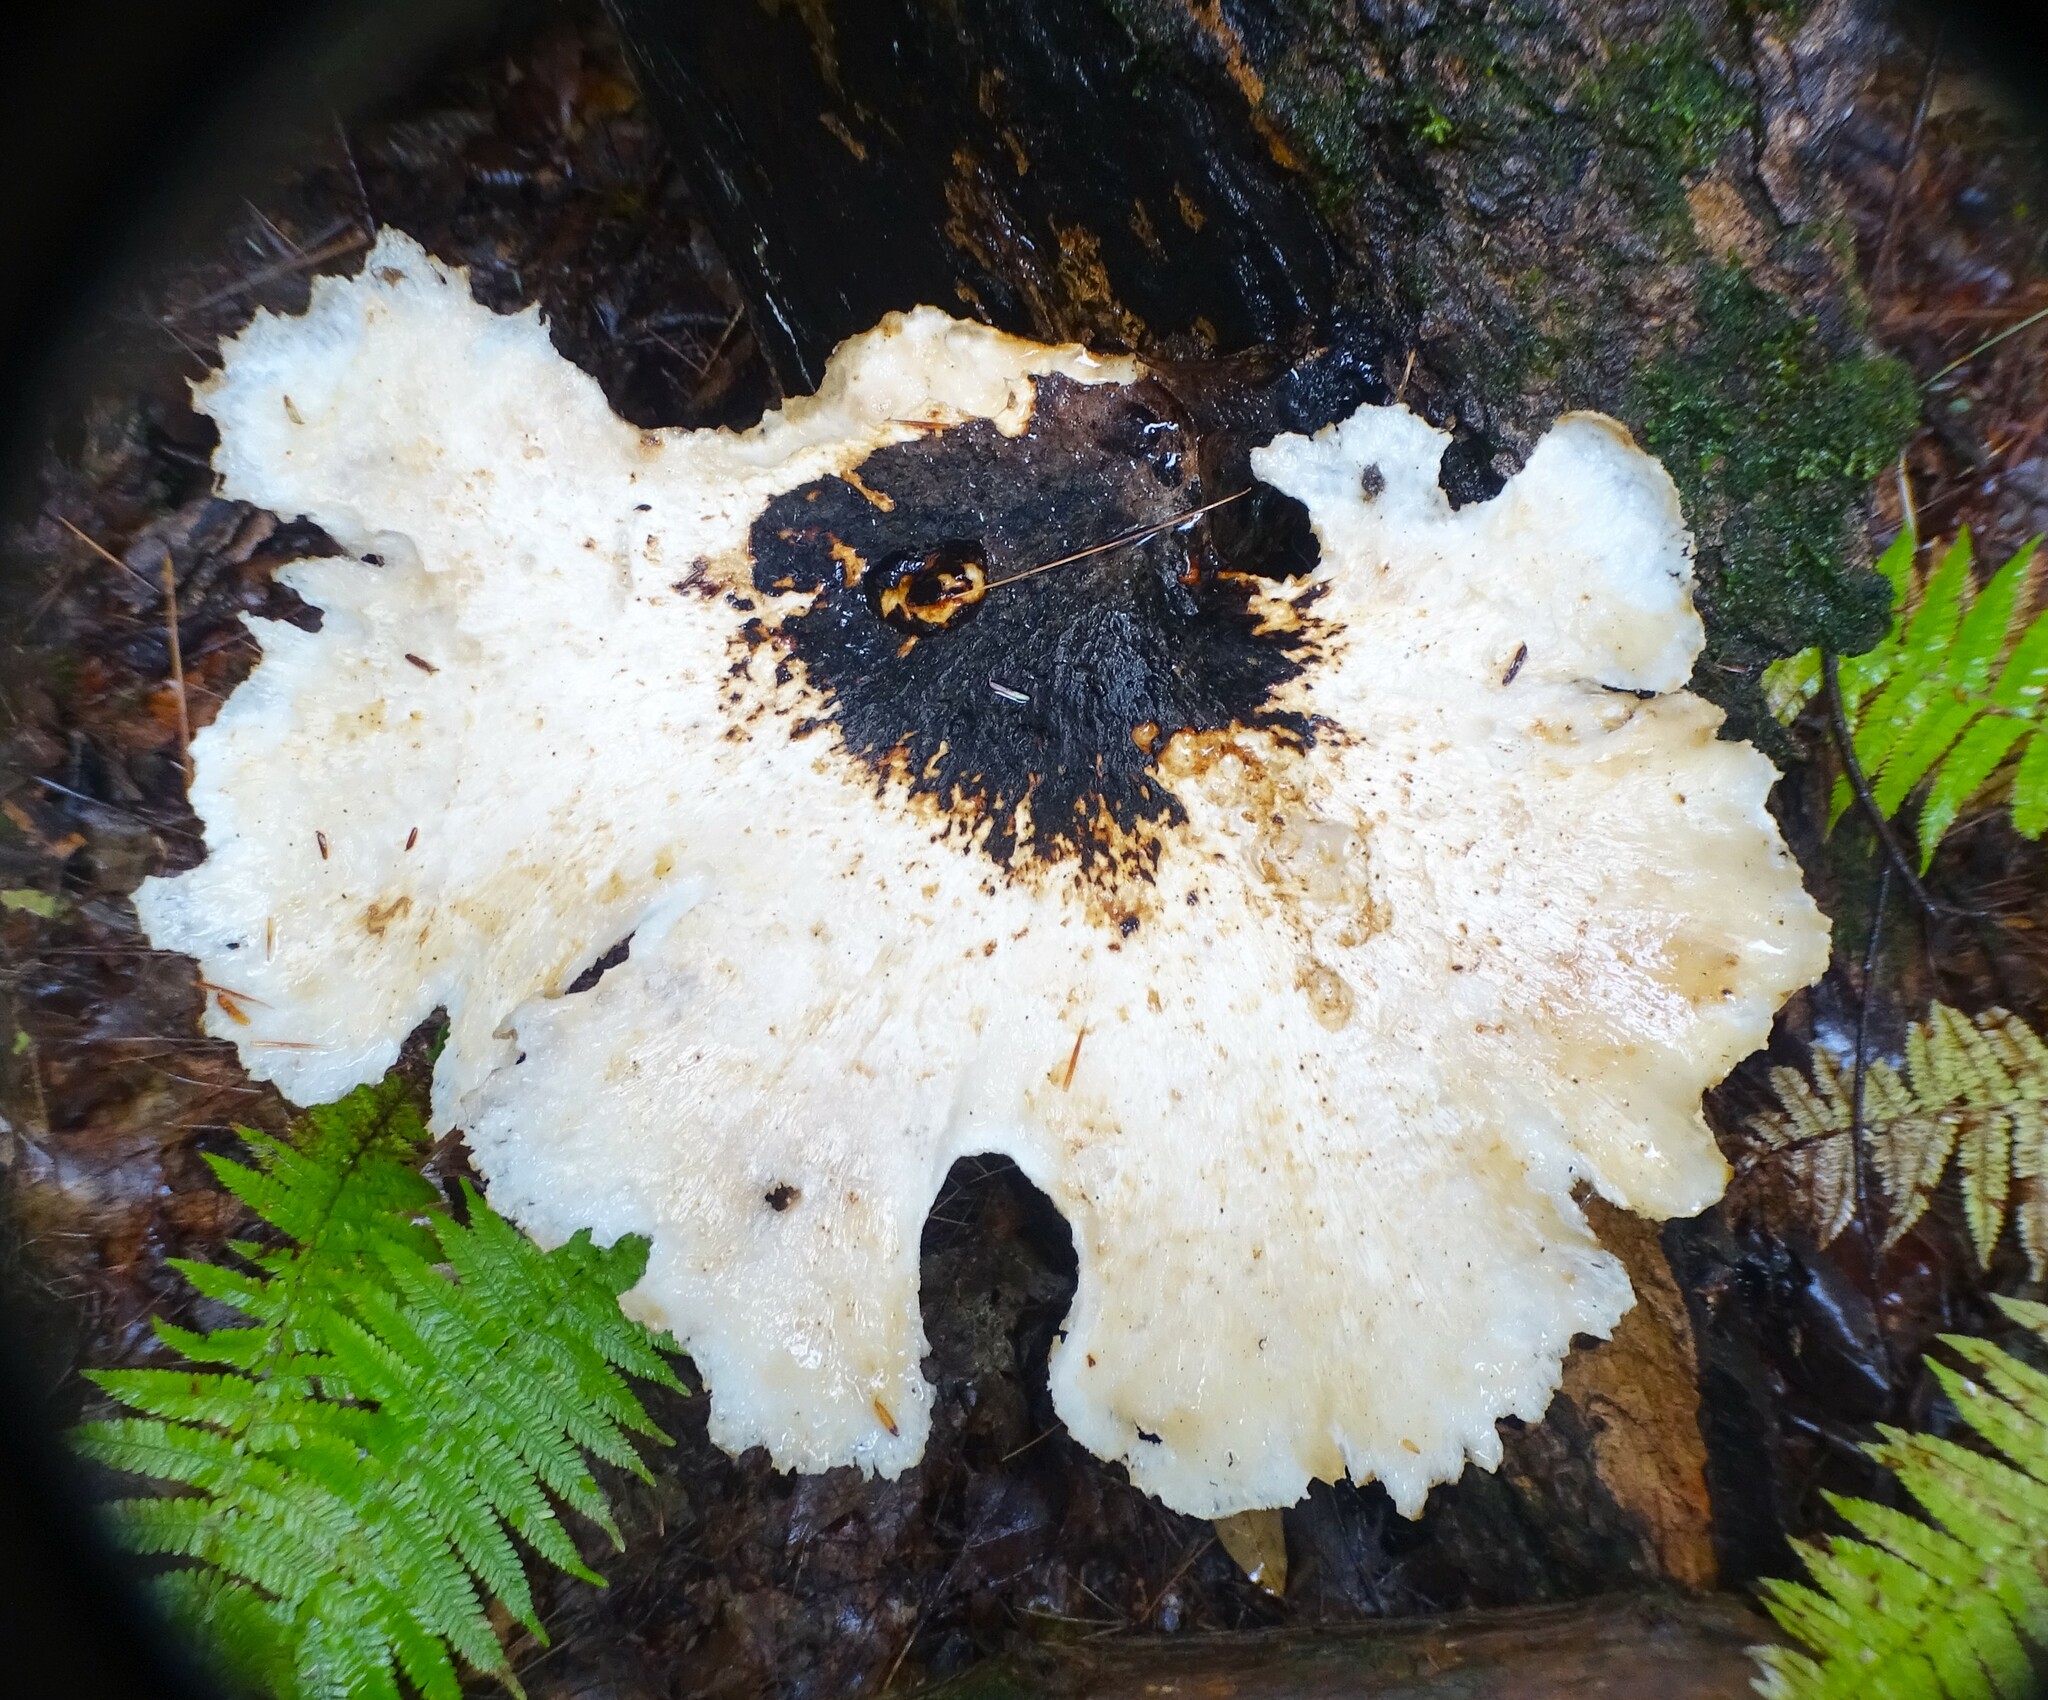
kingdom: Fungi
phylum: Basidiomycota
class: Agaricomycetes
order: Polyporales
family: Polyporaceae
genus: Cerioporus
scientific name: Cerioporus squamosus
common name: Dryad's saddle
